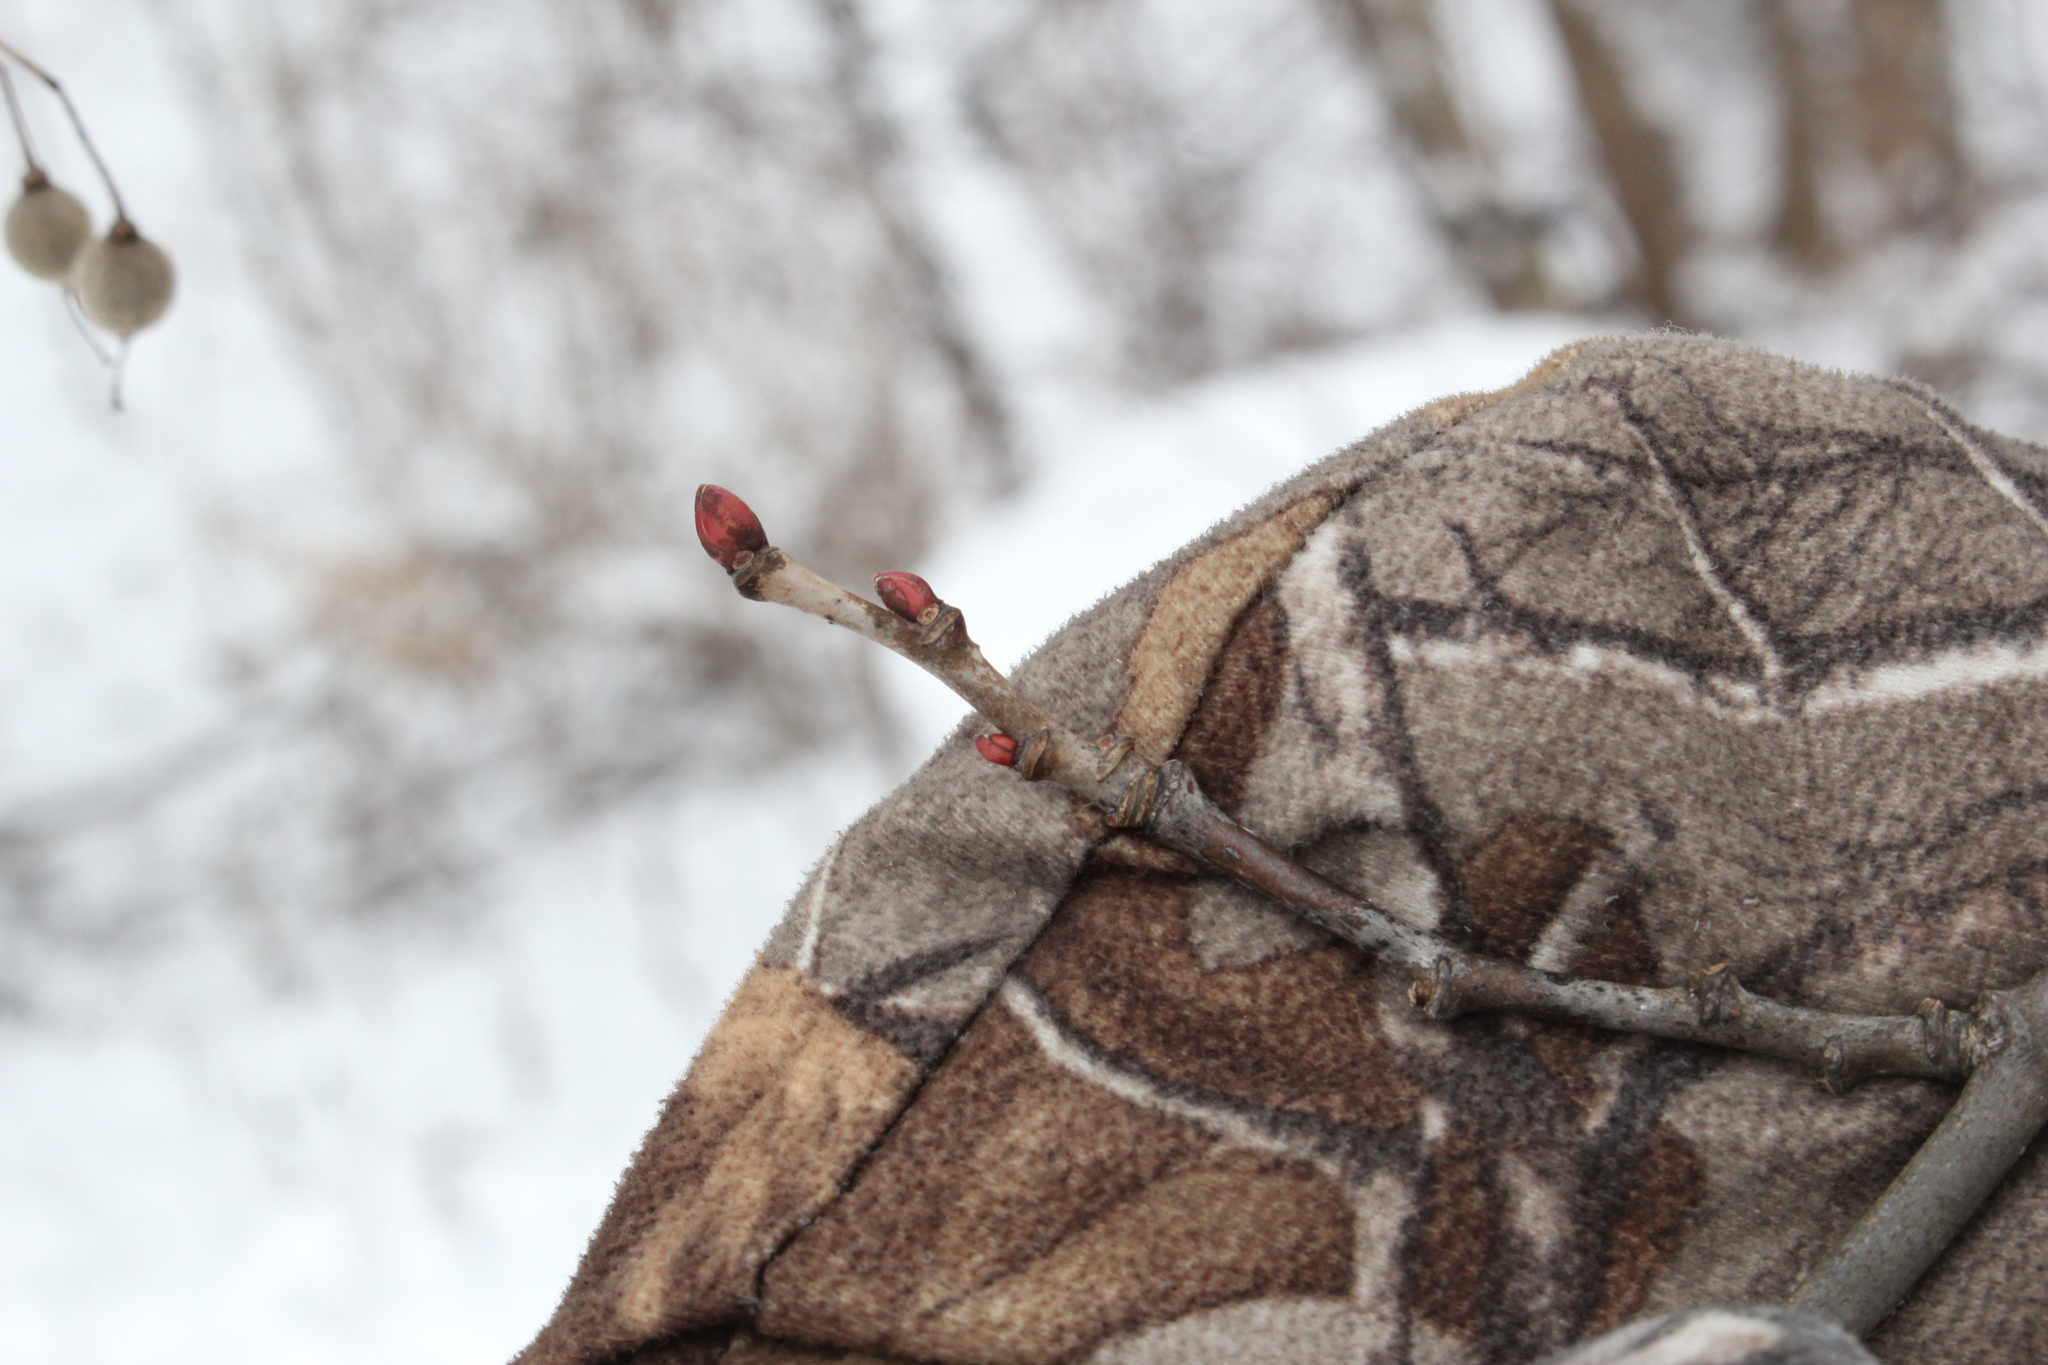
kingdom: Plantae
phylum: Tracheophyta
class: Magnoliopsida
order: Malvales
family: Malvaceae
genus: Tilia
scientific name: Tilia americana
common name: Basswood
